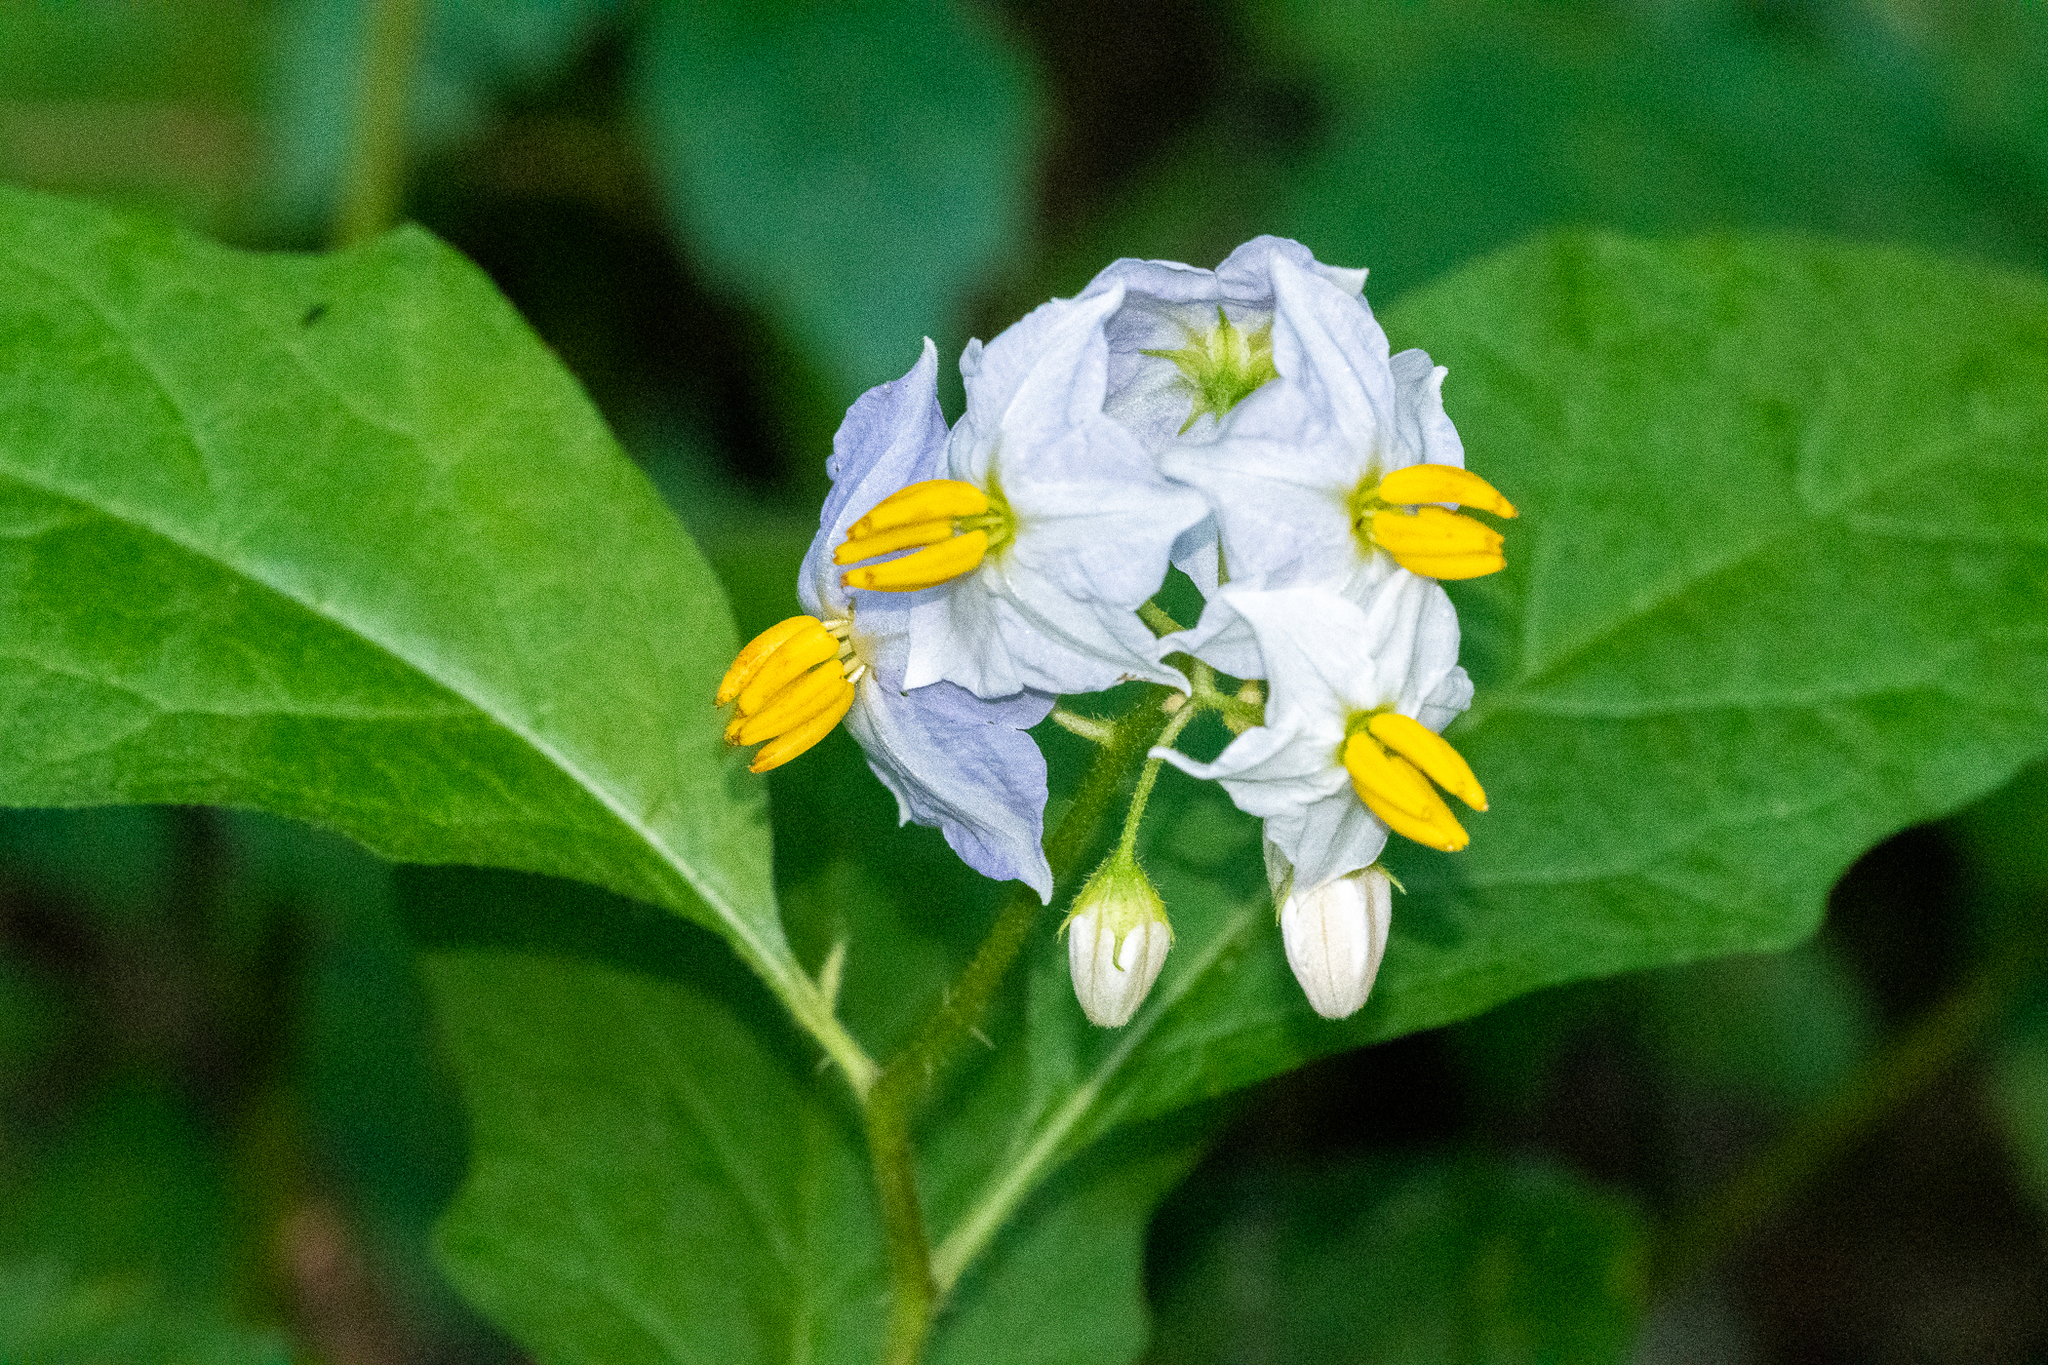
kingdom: Plantae
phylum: Tracheophyta
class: Magnoliopsida
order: Solanales
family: Solanaceae
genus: Solanum
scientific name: Solanum carolinense
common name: Horse-nettle
